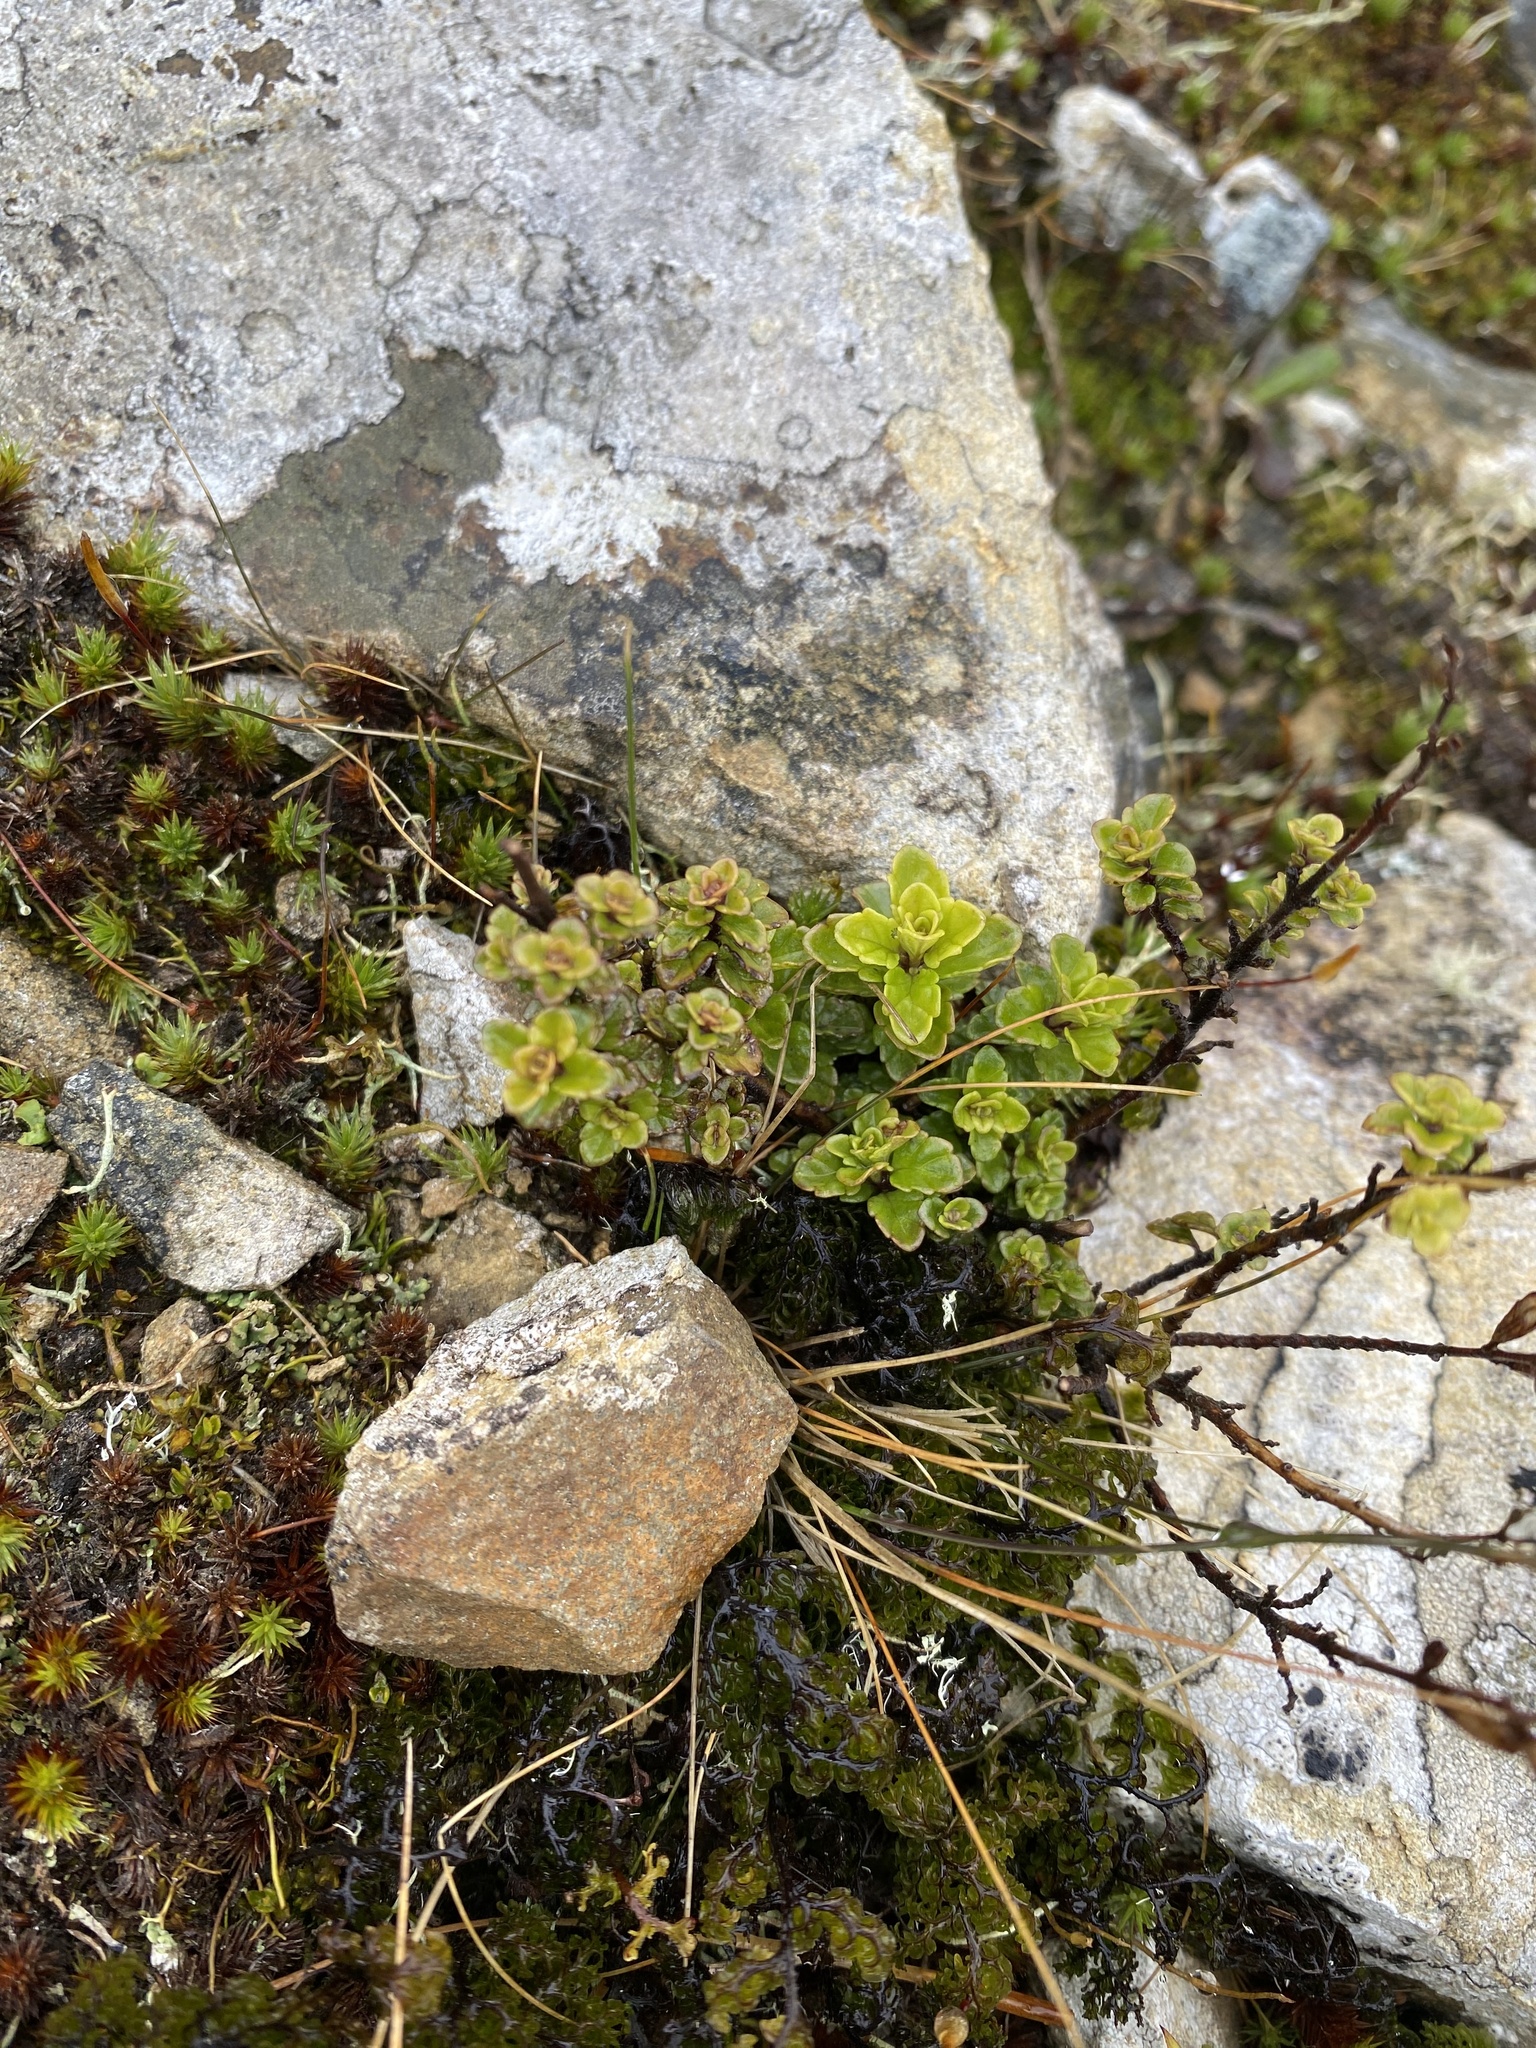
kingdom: Plantae
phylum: Tracheophyta
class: Magnoliopsida
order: Lamiales
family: Orobanchaceae
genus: Euphrasia
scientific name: Euphrasia cuneata
